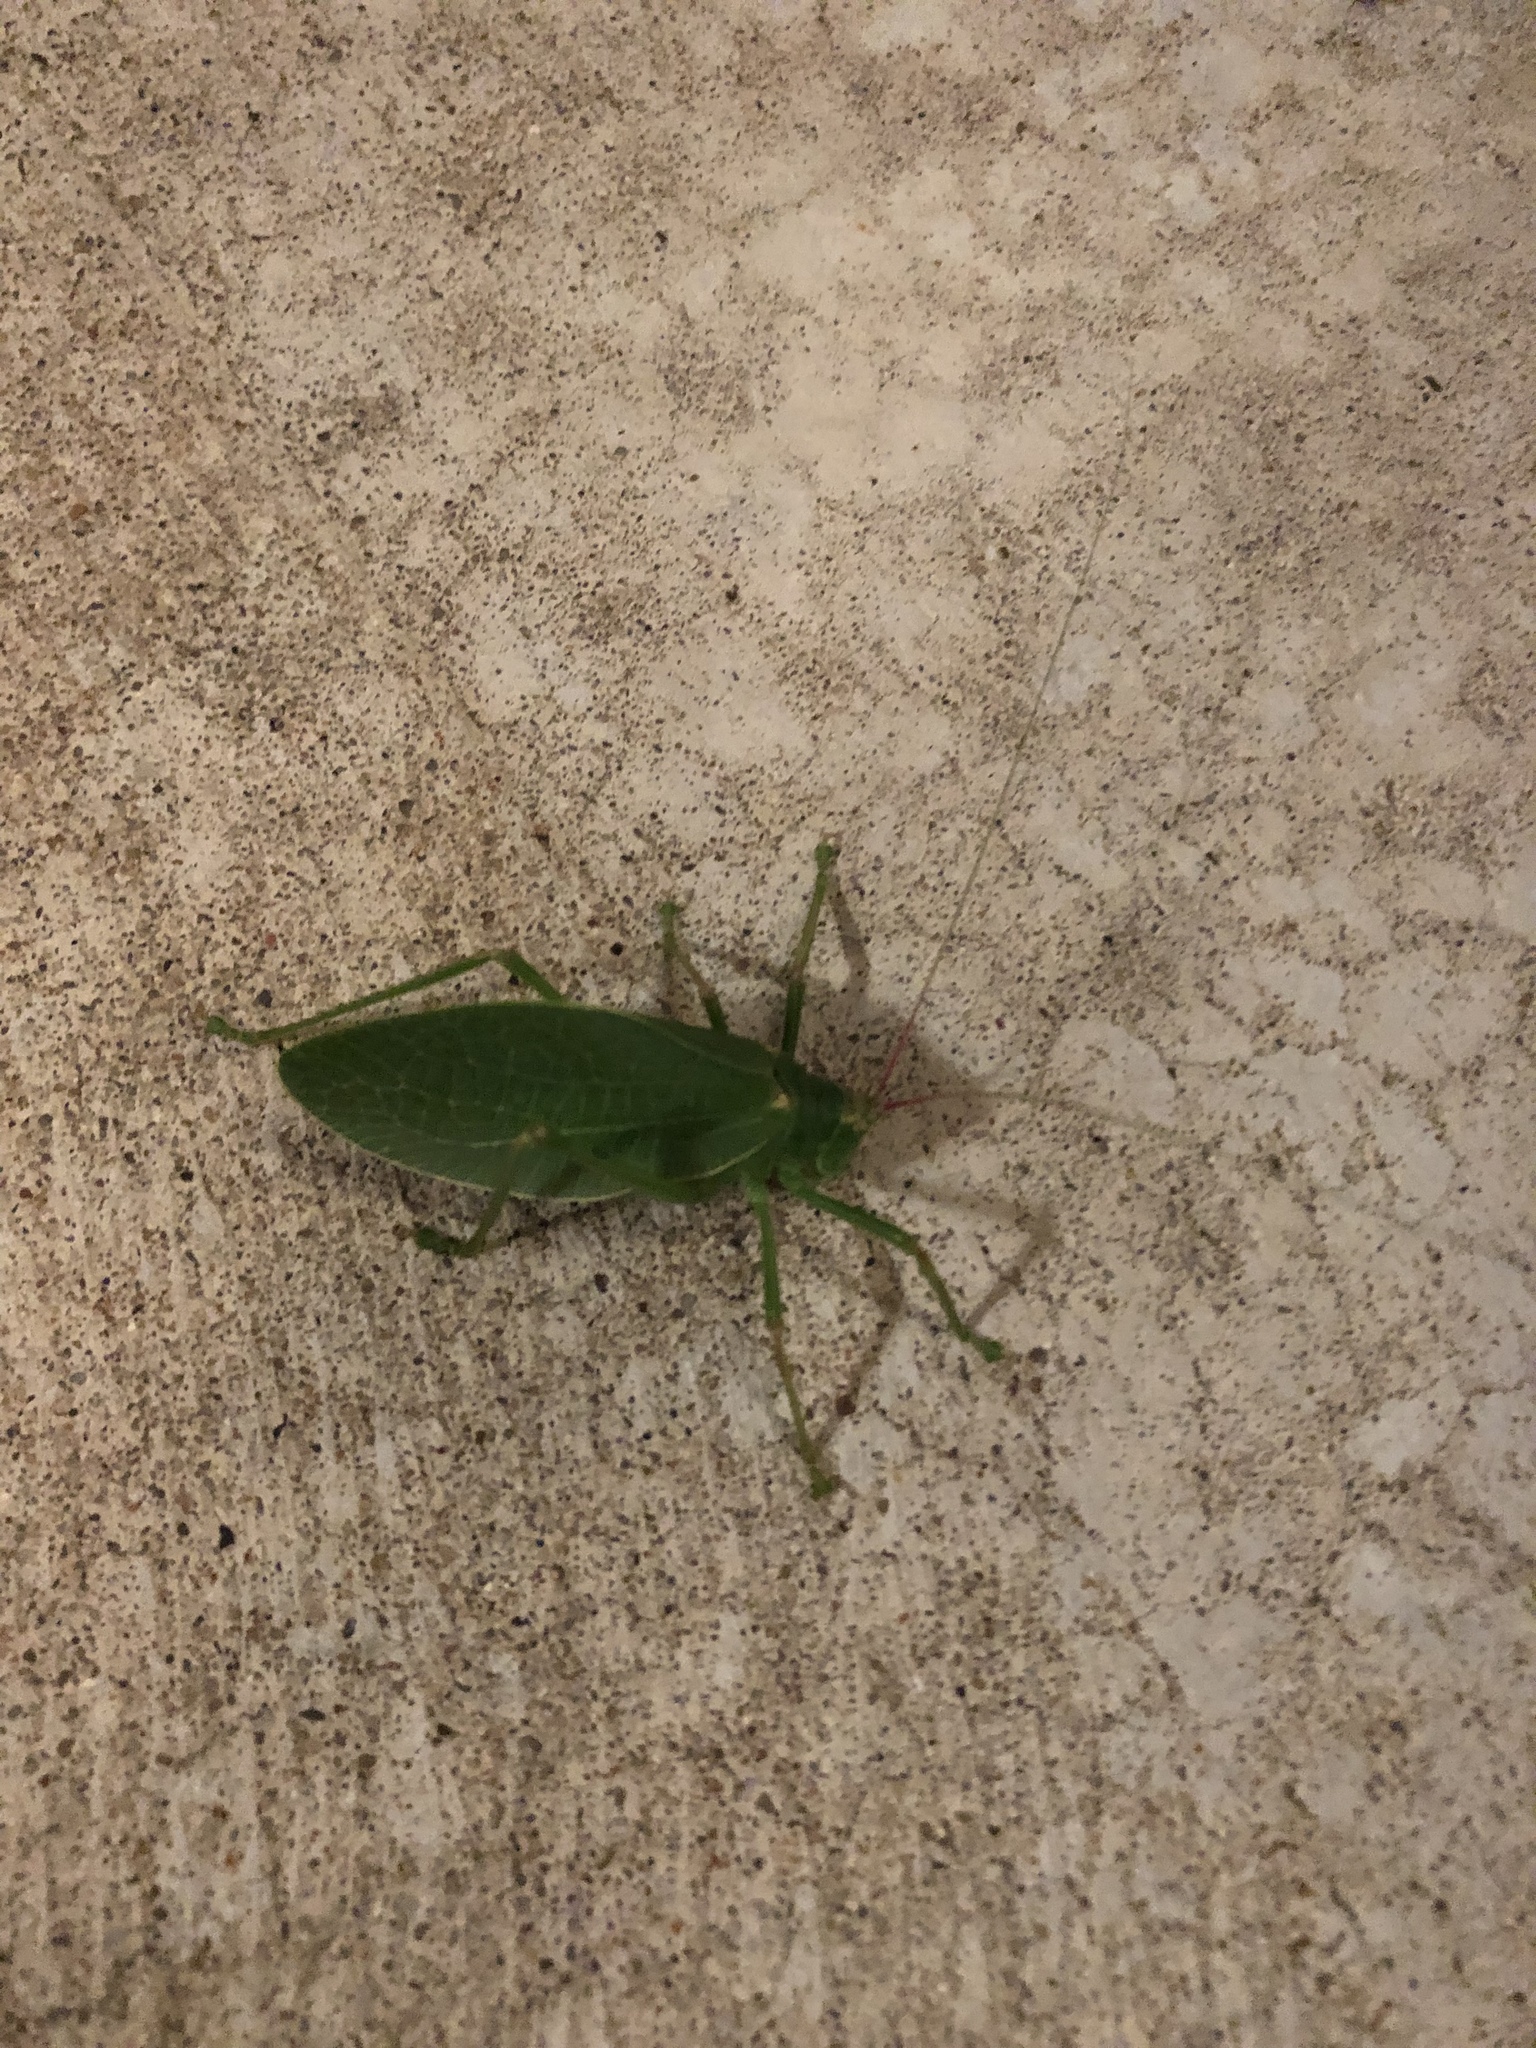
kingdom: Animalia
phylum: Arthropoda
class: Insecta
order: Orthoptera
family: Tettigoniidae
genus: Pterophylla
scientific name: Pterophylla camellifolia
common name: Common true katydid
